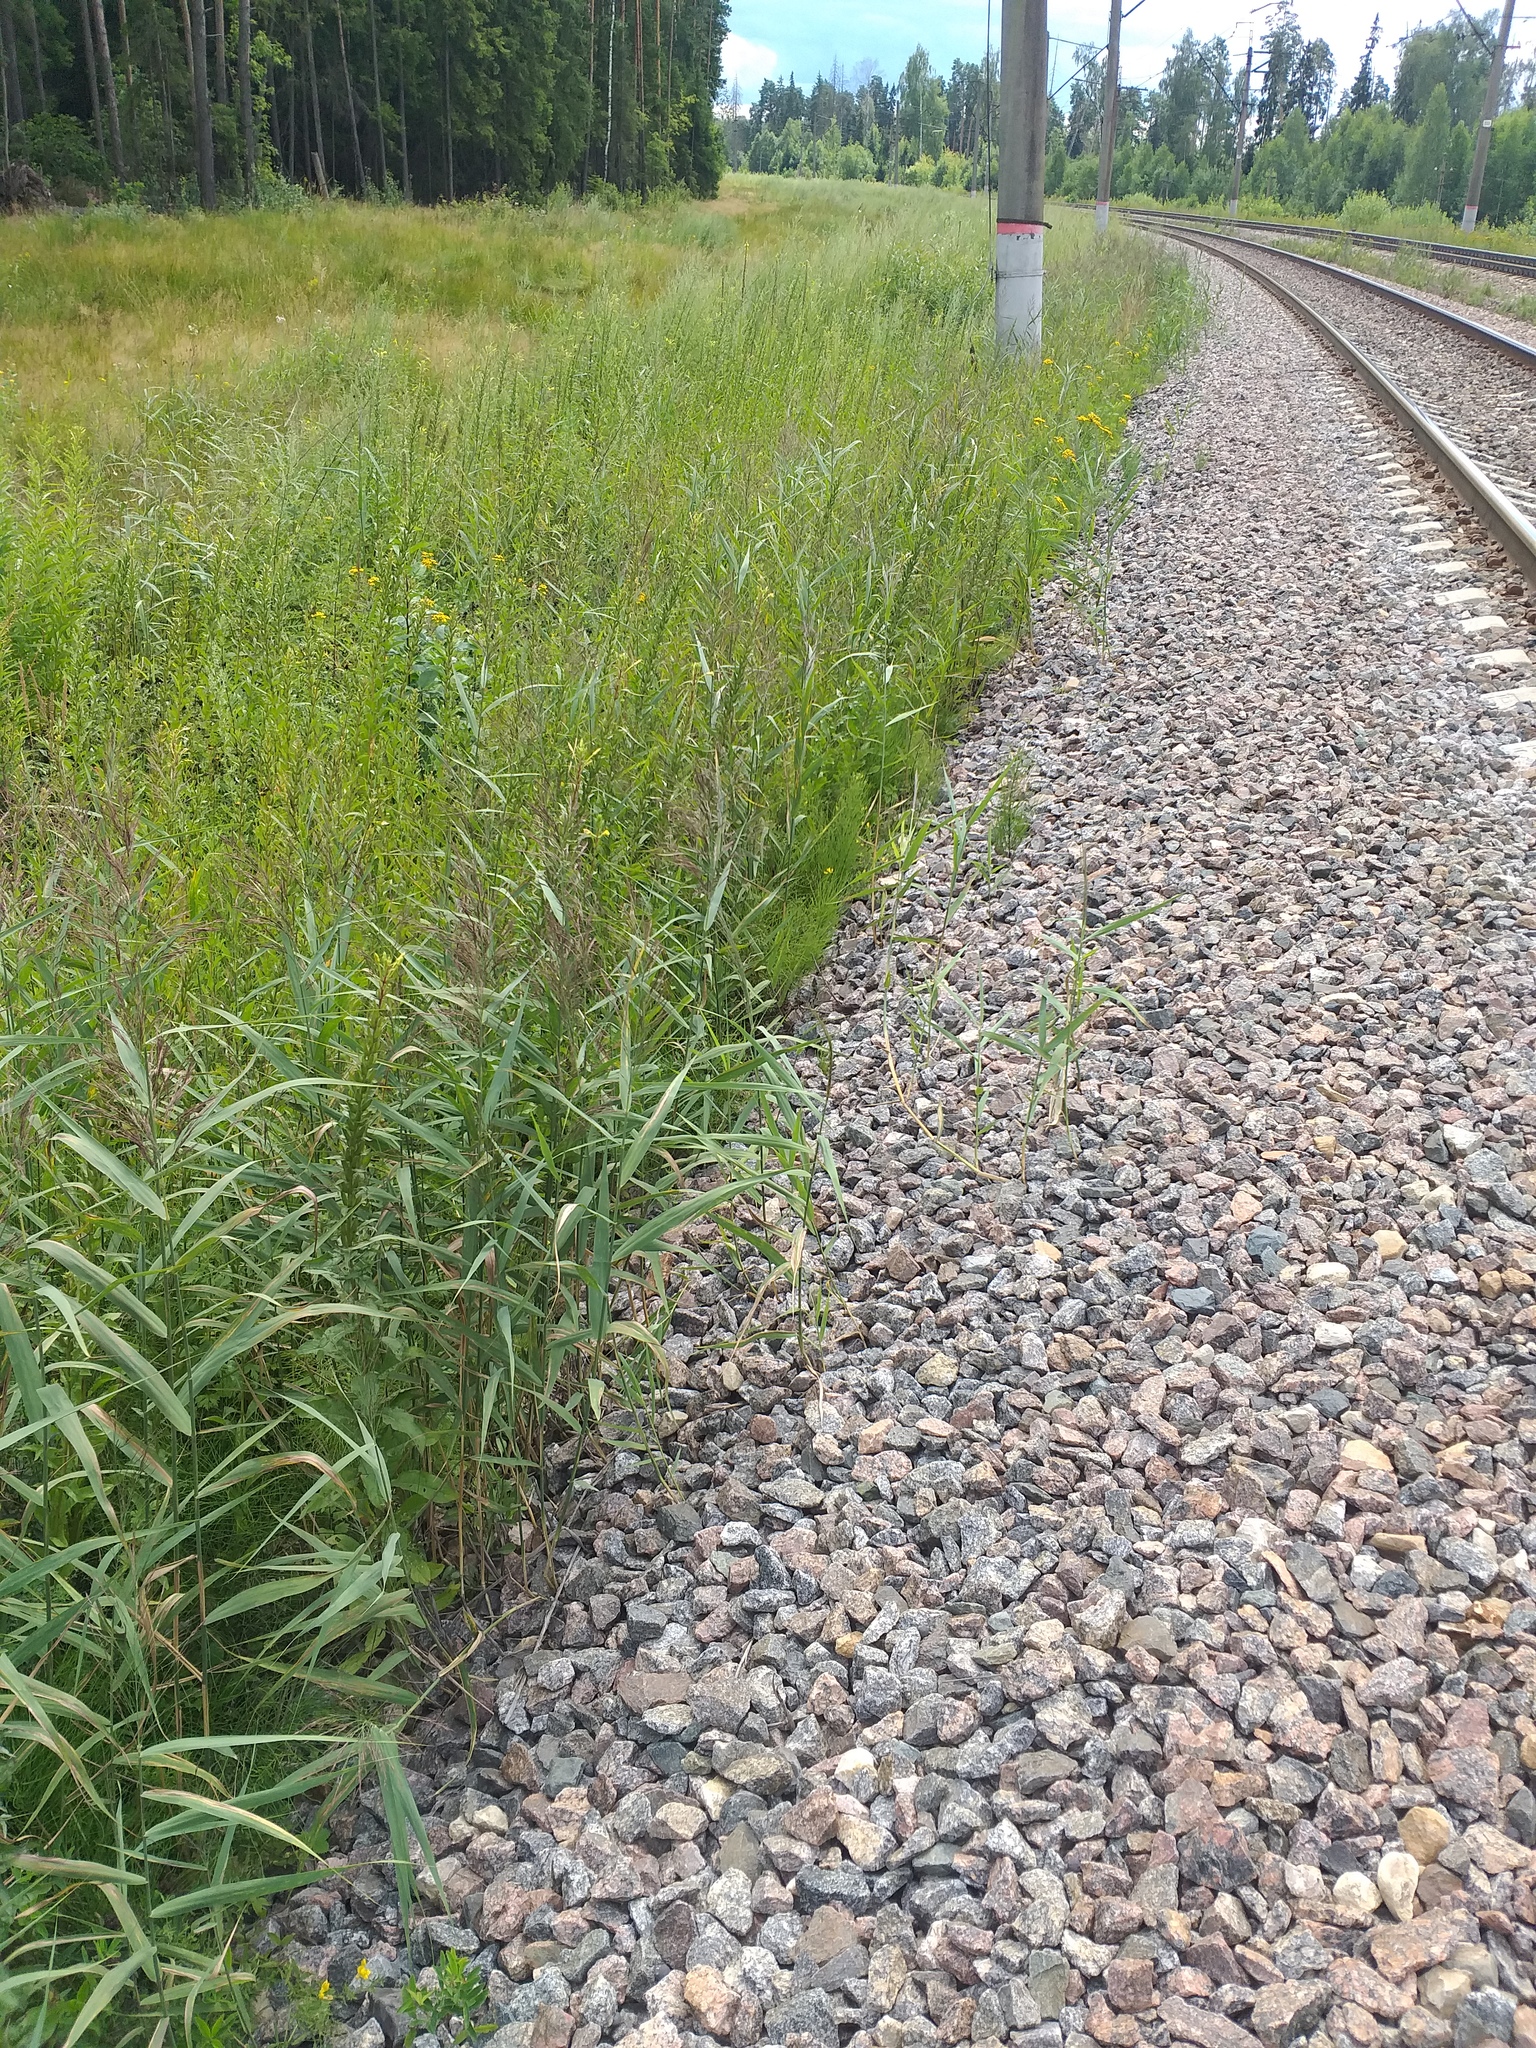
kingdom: Plantae
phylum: Tracheophyta
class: Liliopsida
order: Poales
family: Poaceae
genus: Phragmites
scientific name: Phragmites australis
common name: Common reed
